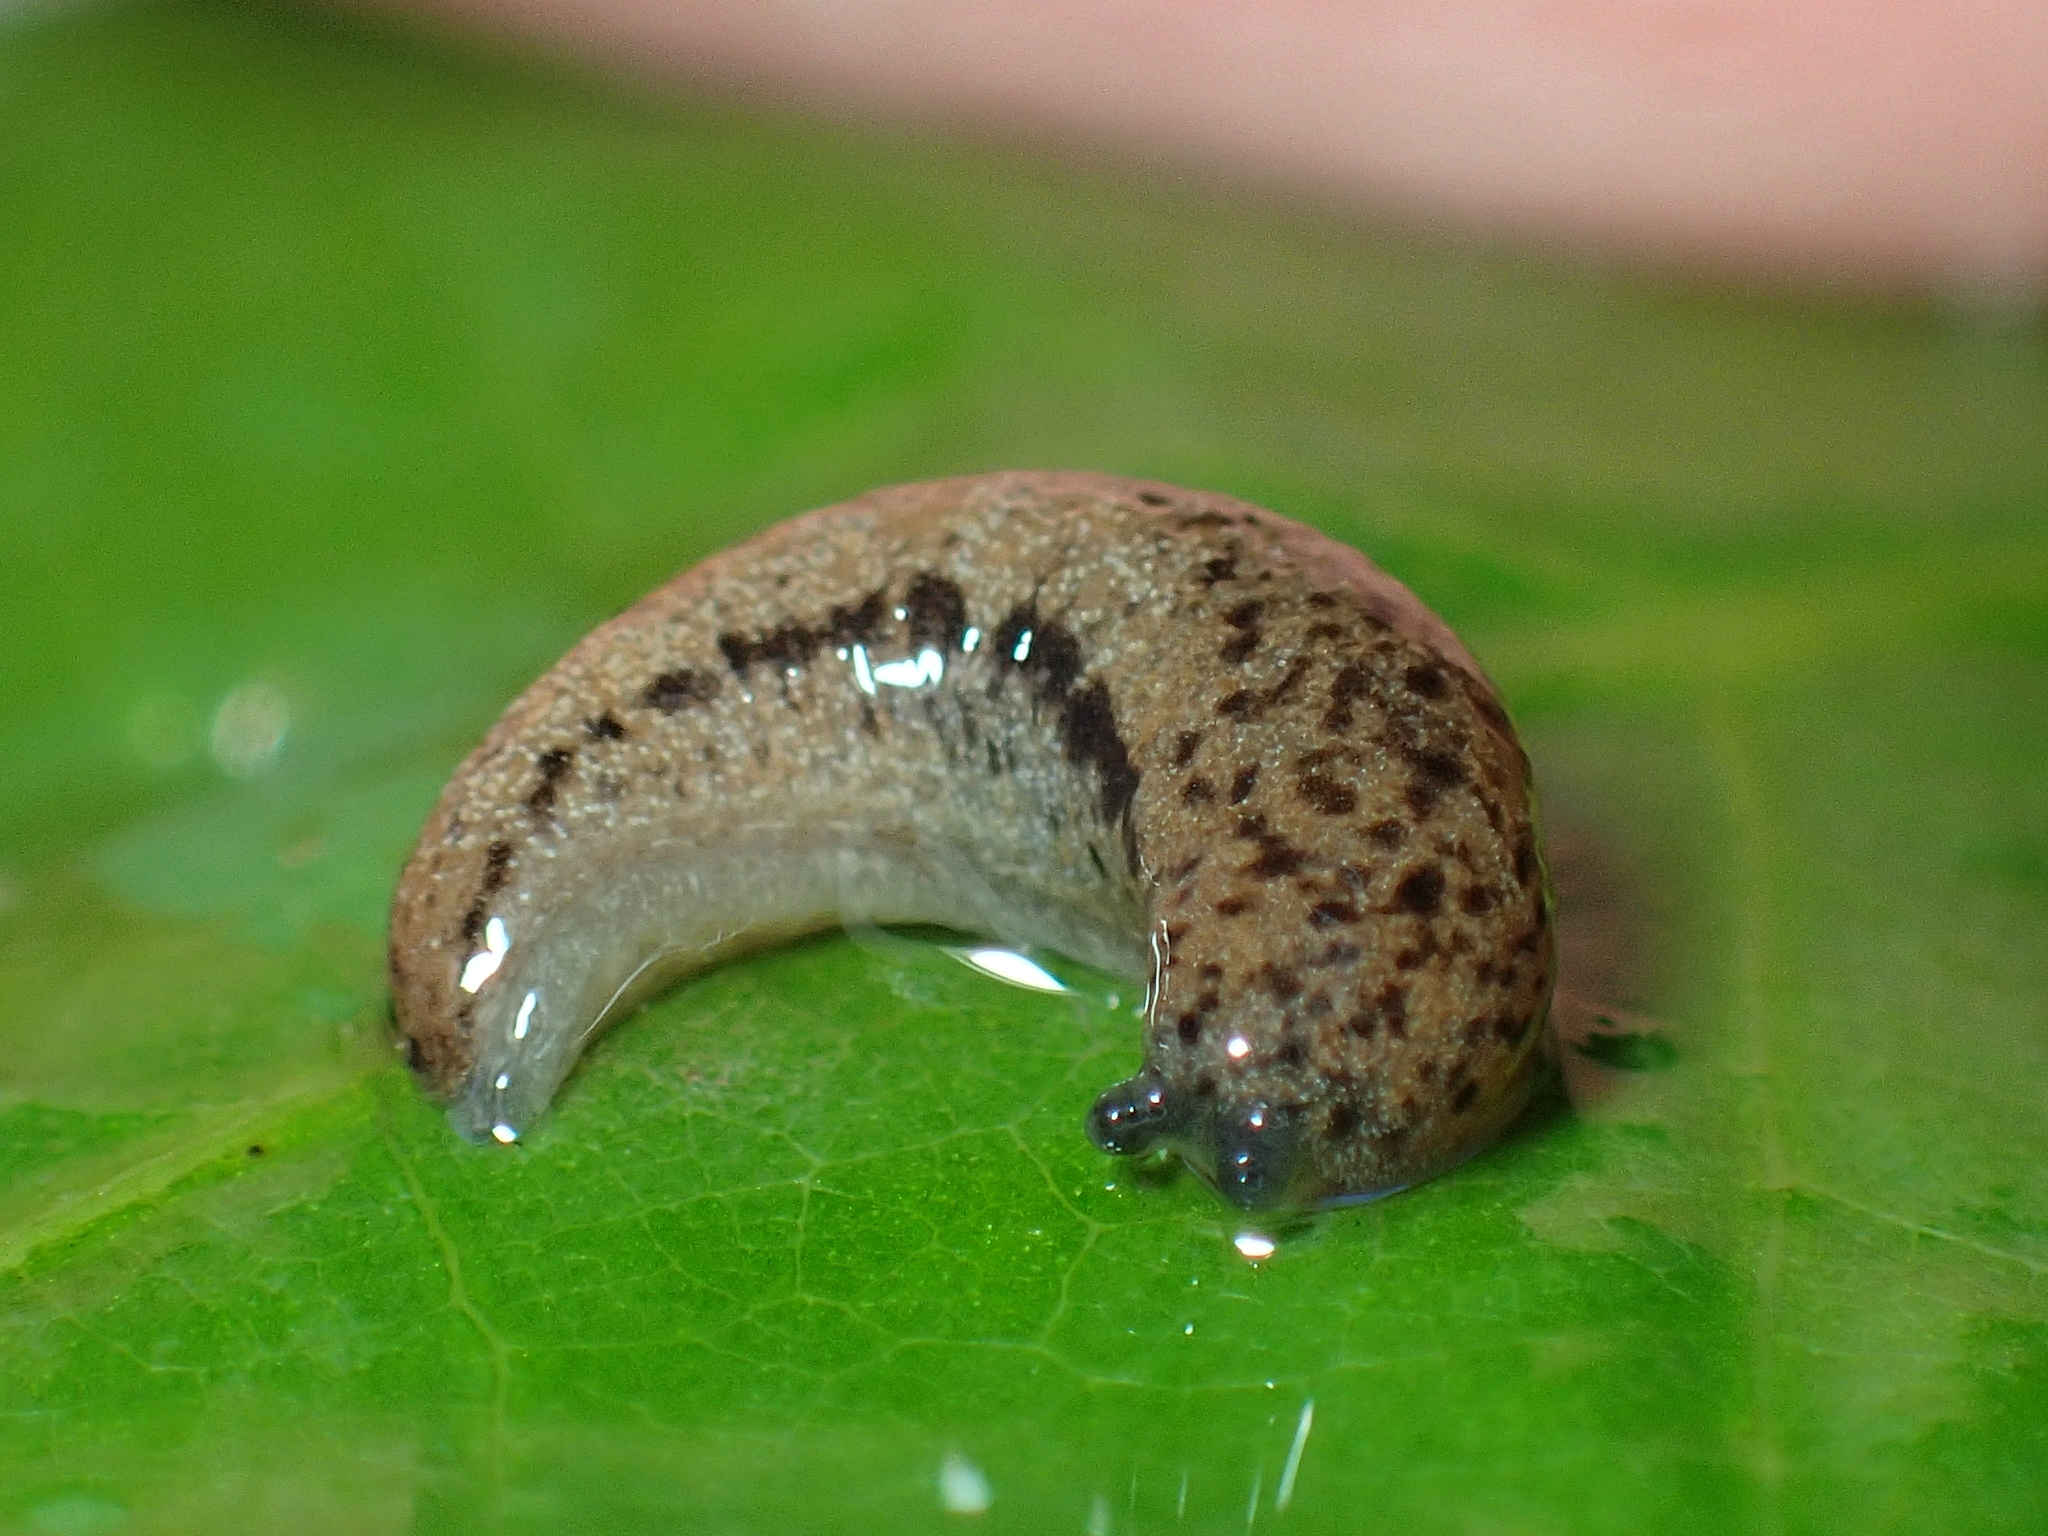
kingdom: Animalia
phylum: Mollusca
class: Gastropoda
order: Stylommatophora
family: Philomycidae
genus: Pallifera
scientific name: Pallifera fosteri
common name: Foster mantleslug
